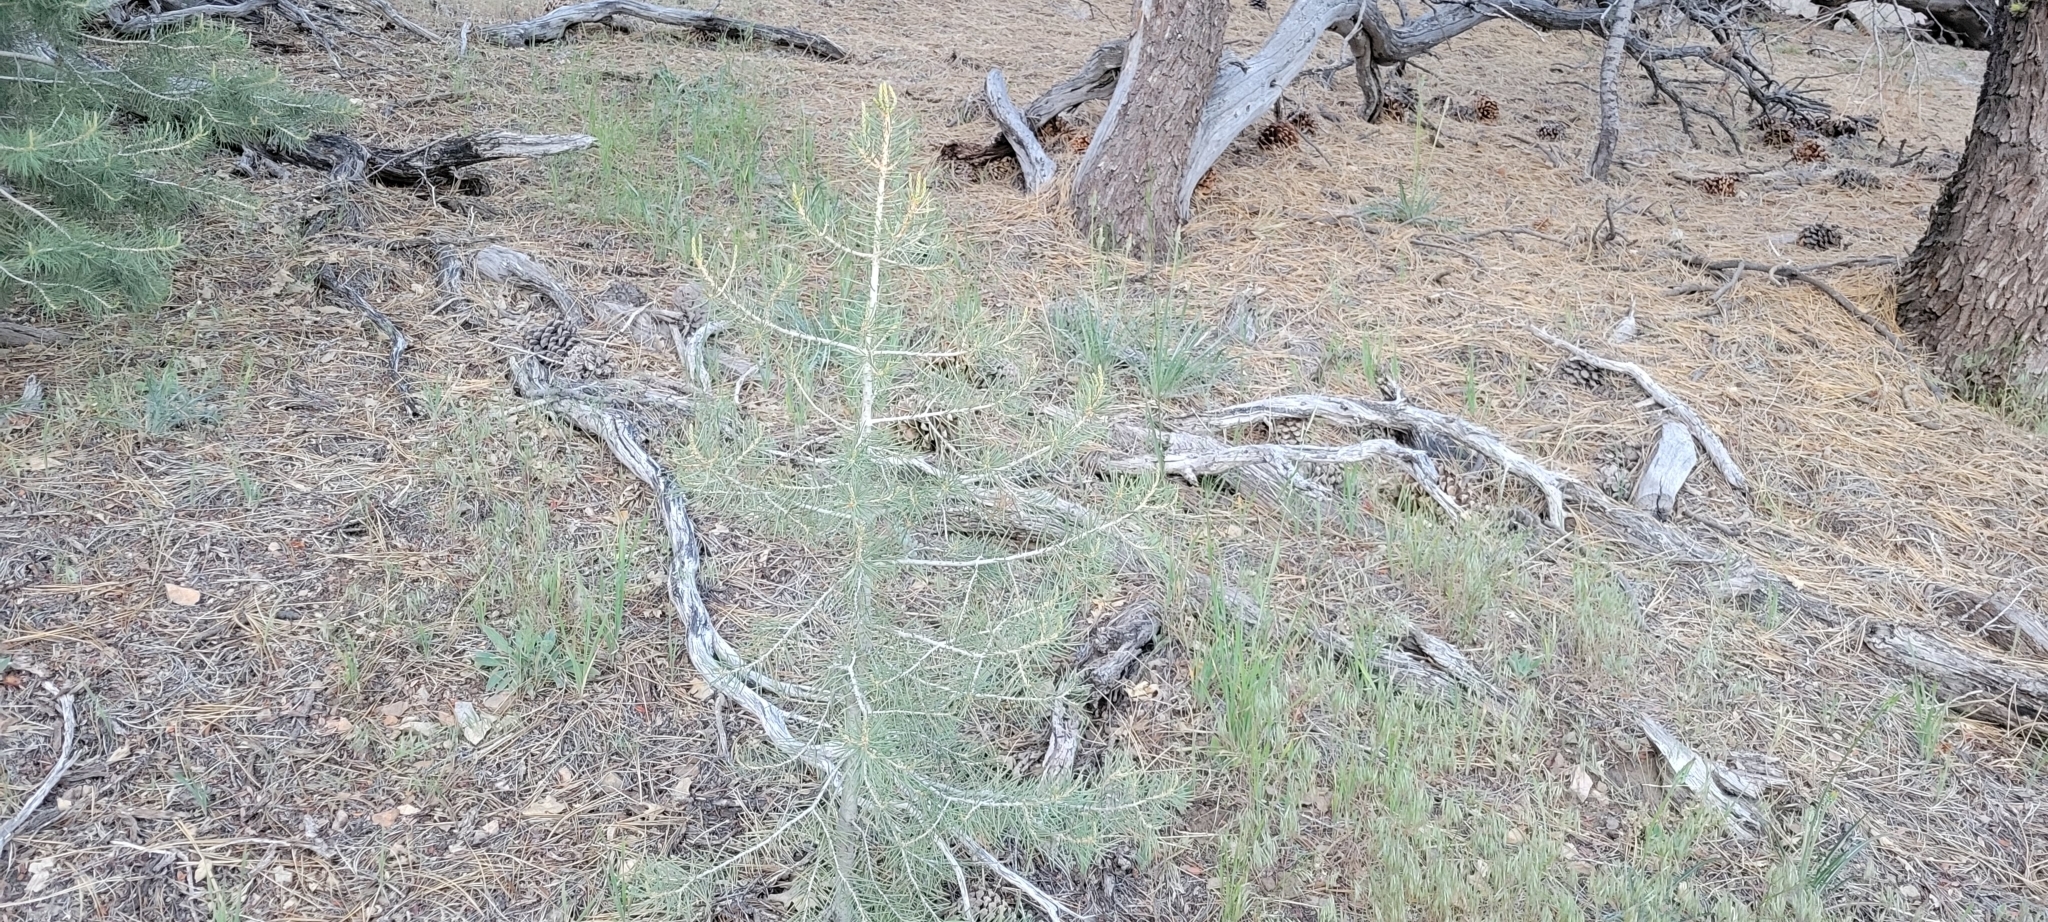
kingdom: Plantae
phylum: Tracheophyta
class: Pinopsida
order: Pinales
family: Pinaceae
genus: Pinus
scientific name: Pinus monophylla
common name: One-leaved nut pine
